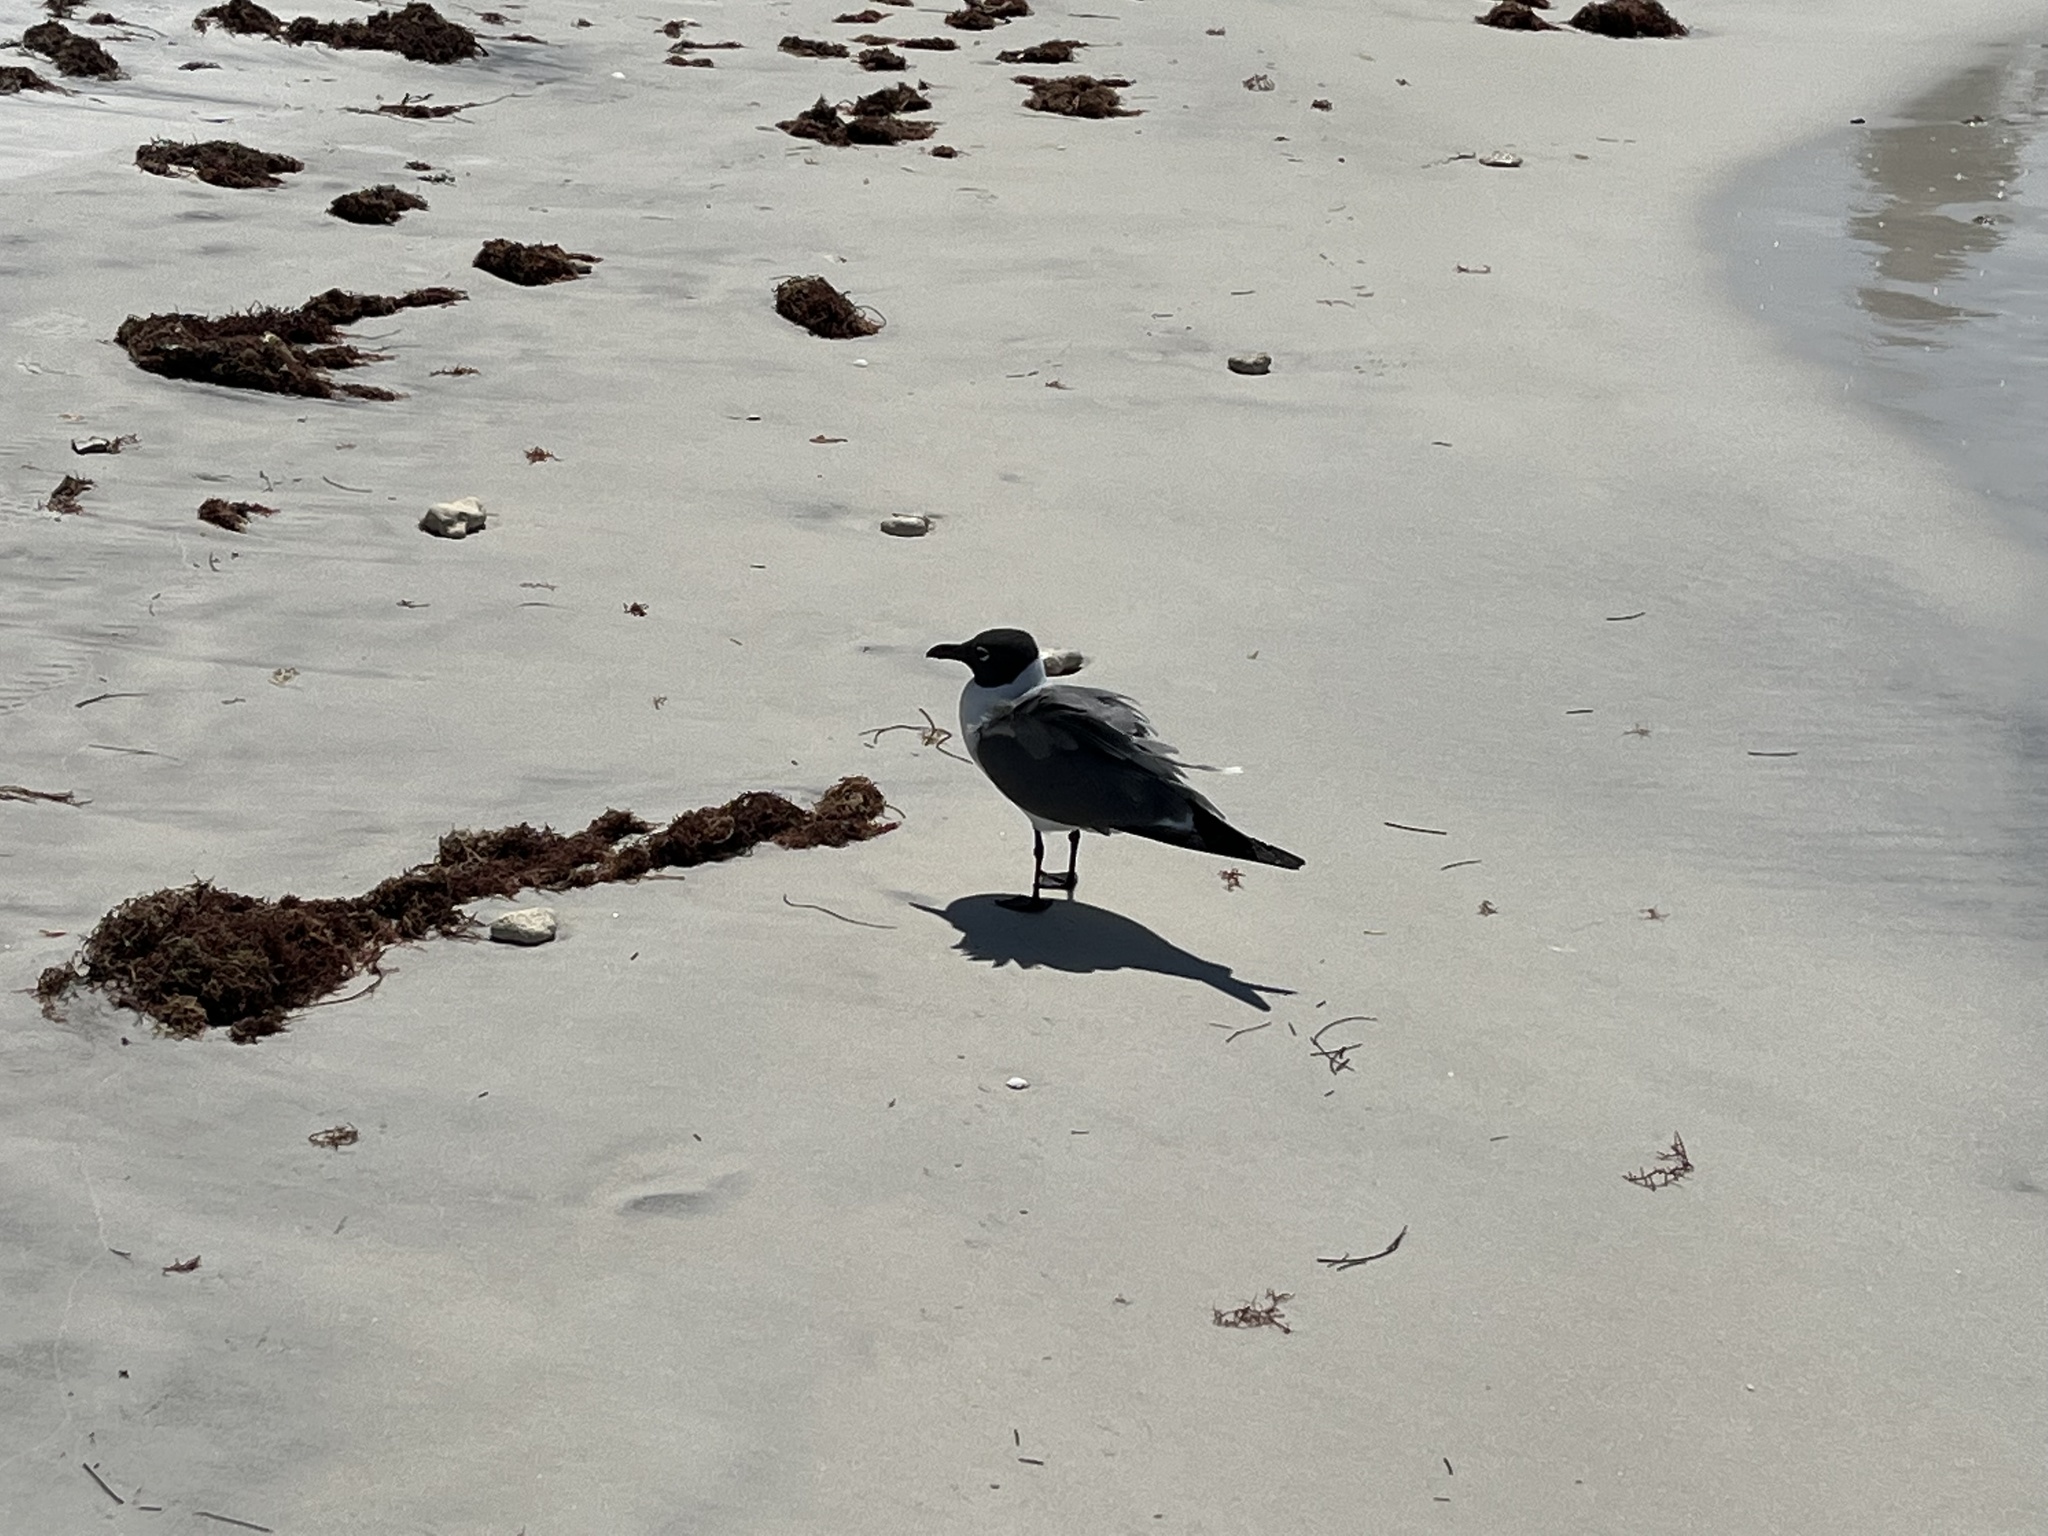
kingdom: Animalia
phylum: Chordata
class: Aves
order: Charadriiformes
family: Laridae
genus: Leucophaeus
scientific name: Leucophaeus atricilla
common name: Laughing gull
